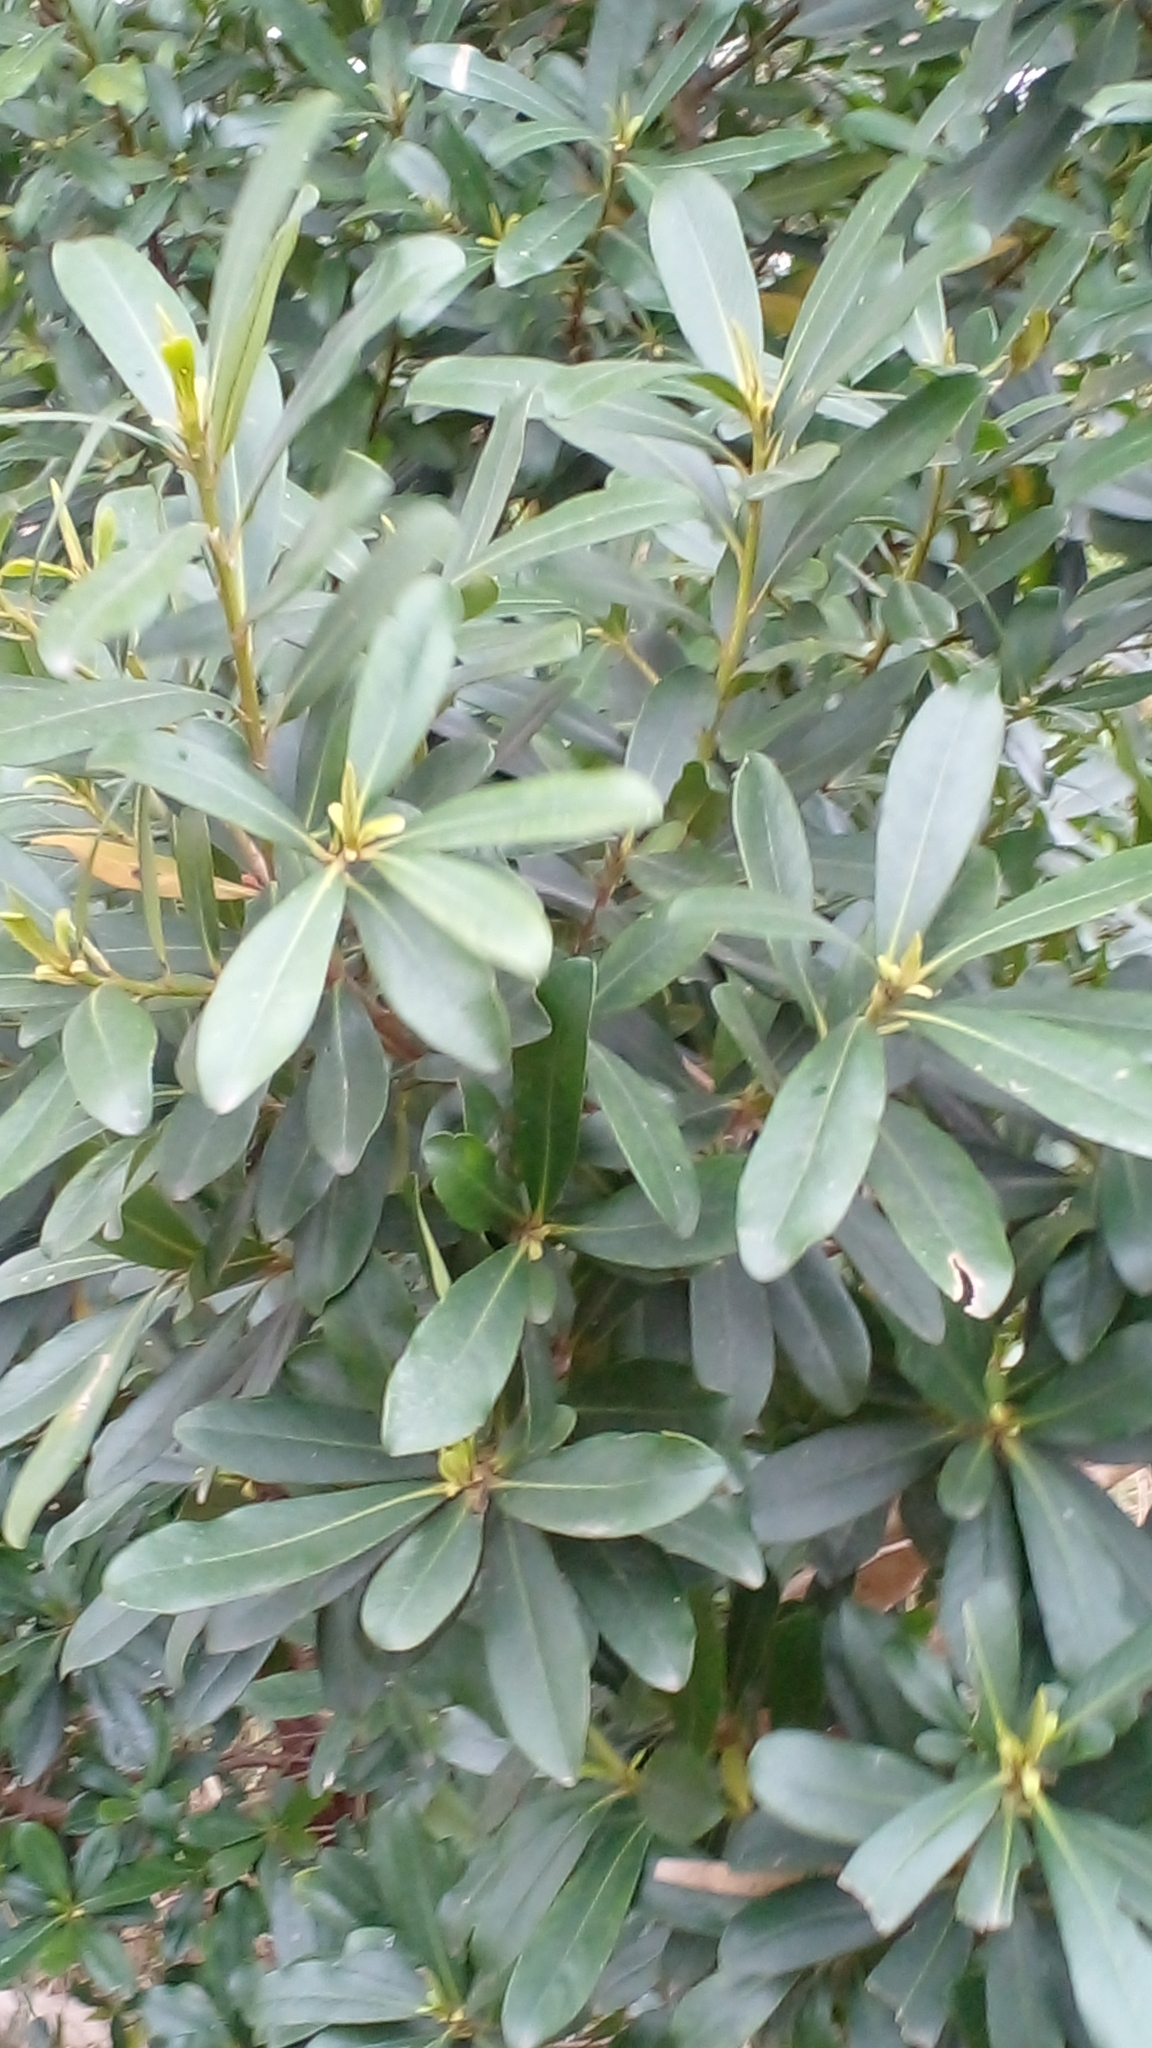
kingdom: Plantae
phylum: Tracheophyta
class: Magnoliopsida
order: Apiales
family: Pittosporaceae
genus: Pittosporum
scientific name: Pittosporum tobira
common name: Japanese cheesewood
